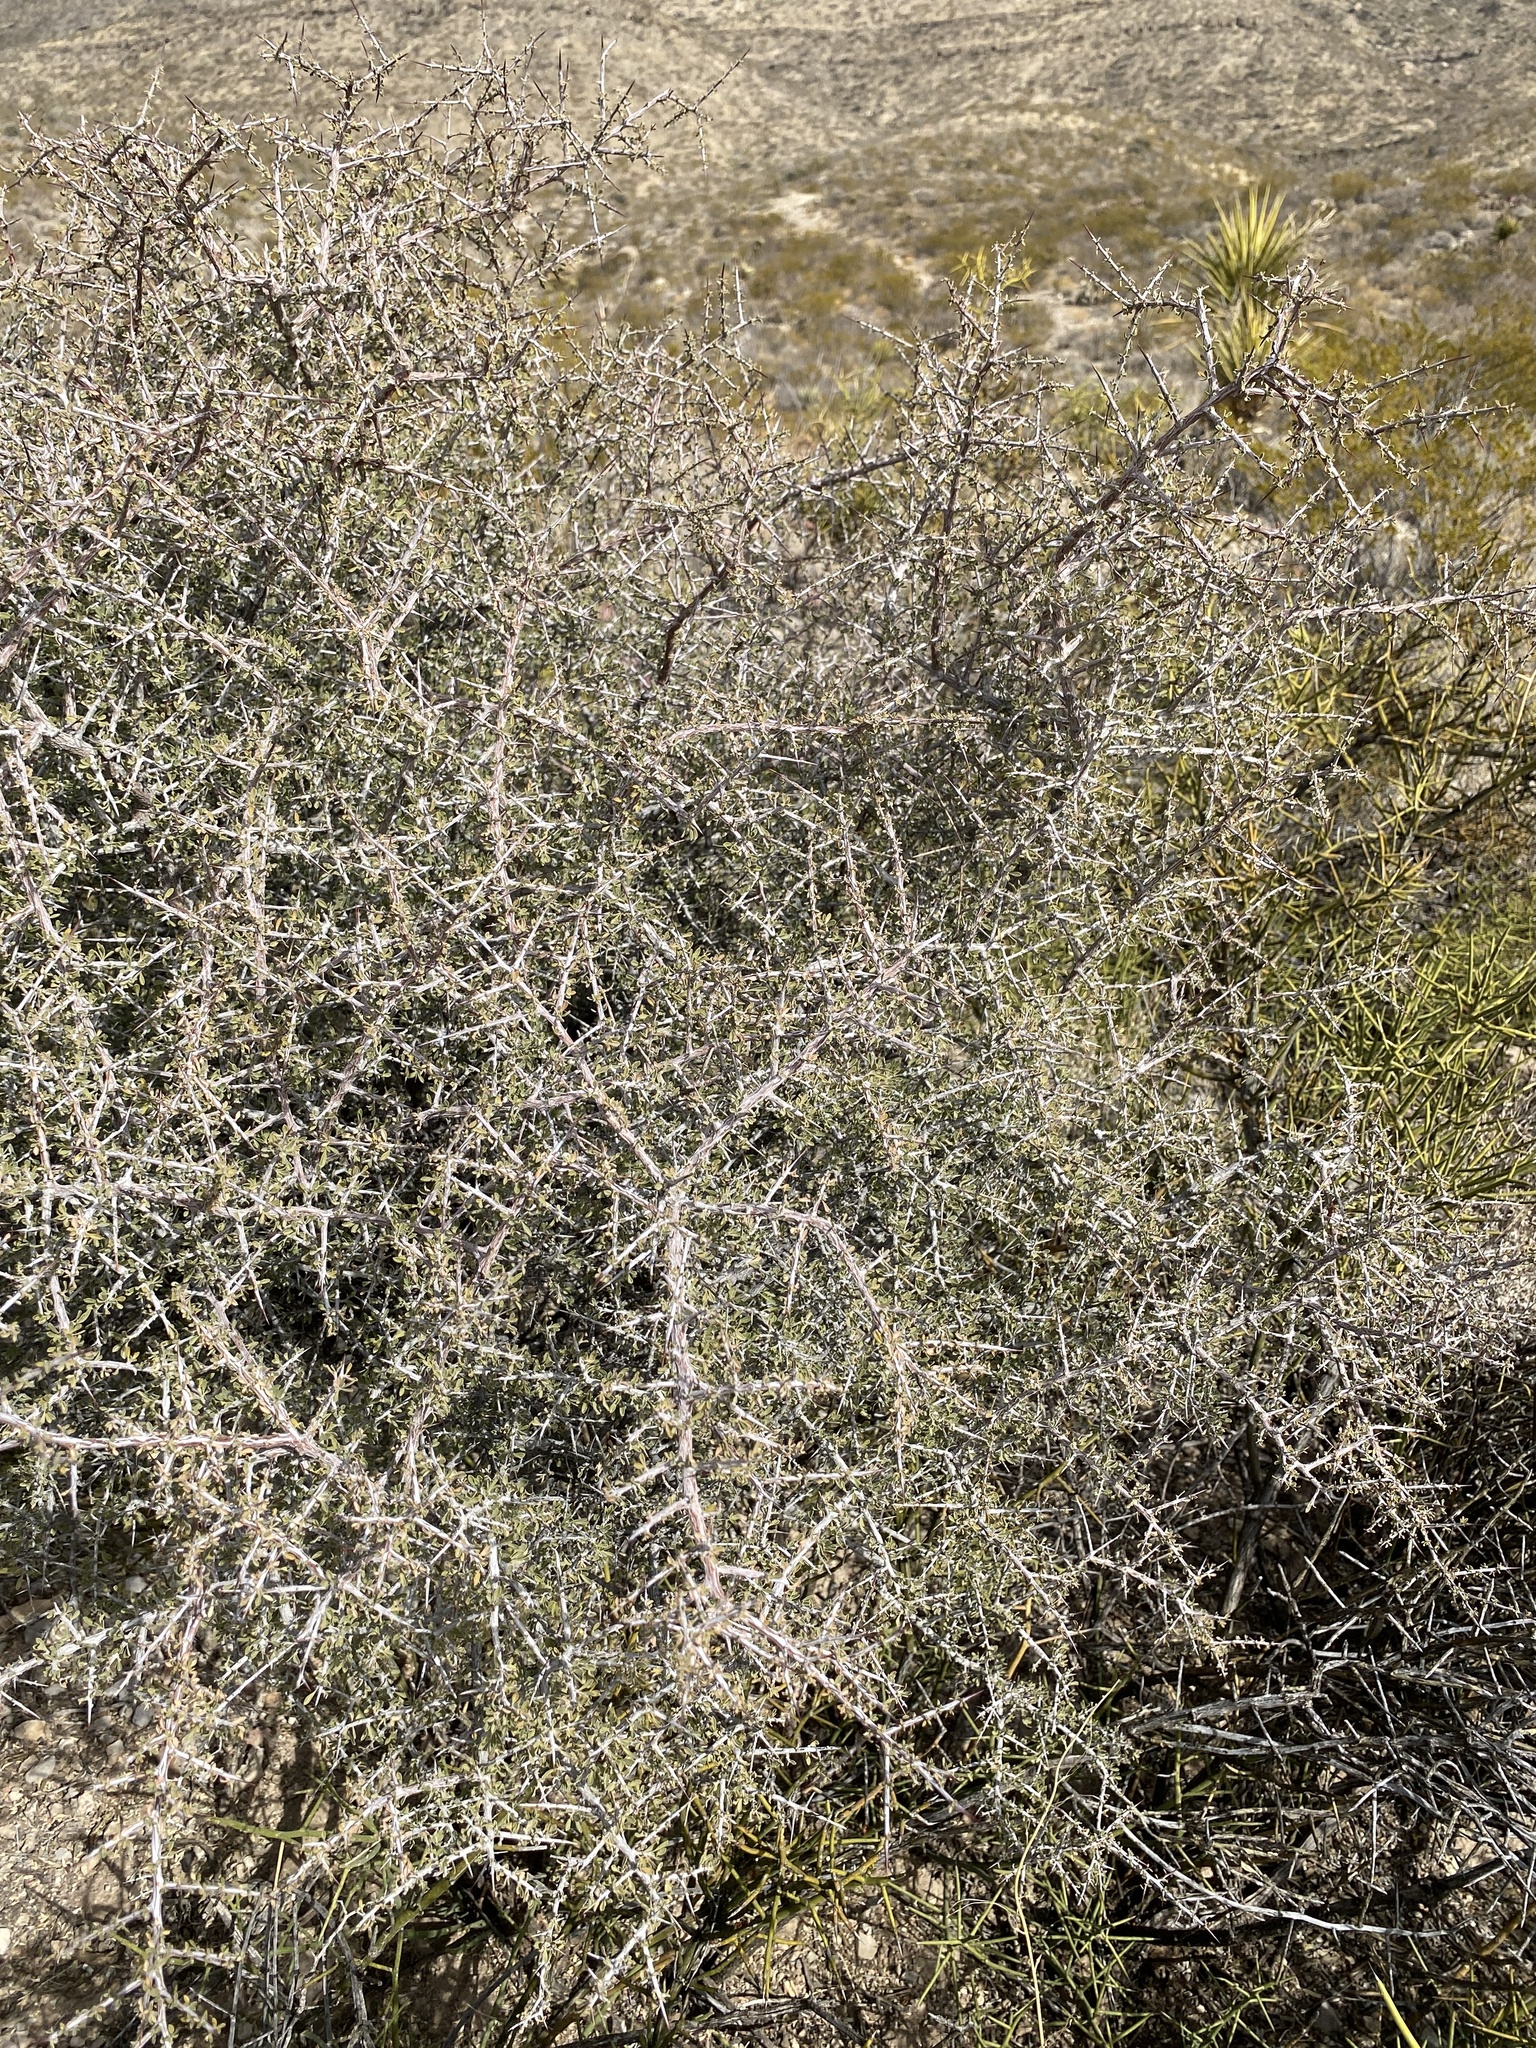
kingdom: Plantae
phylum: Tracheophyta
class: Magnoliopsida
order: Rosales
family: Rhamnaceae
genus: Condalia
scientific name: Condalia warnockii
